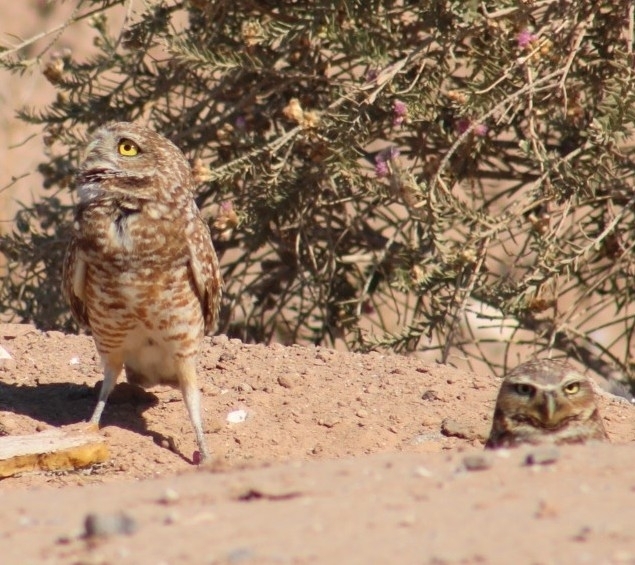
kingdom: Animalia
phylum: Chordata
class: Aves
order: Strigiformes
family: Strigidae
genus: Athene
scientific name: Athene cunicularia
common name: Burrowing owl
